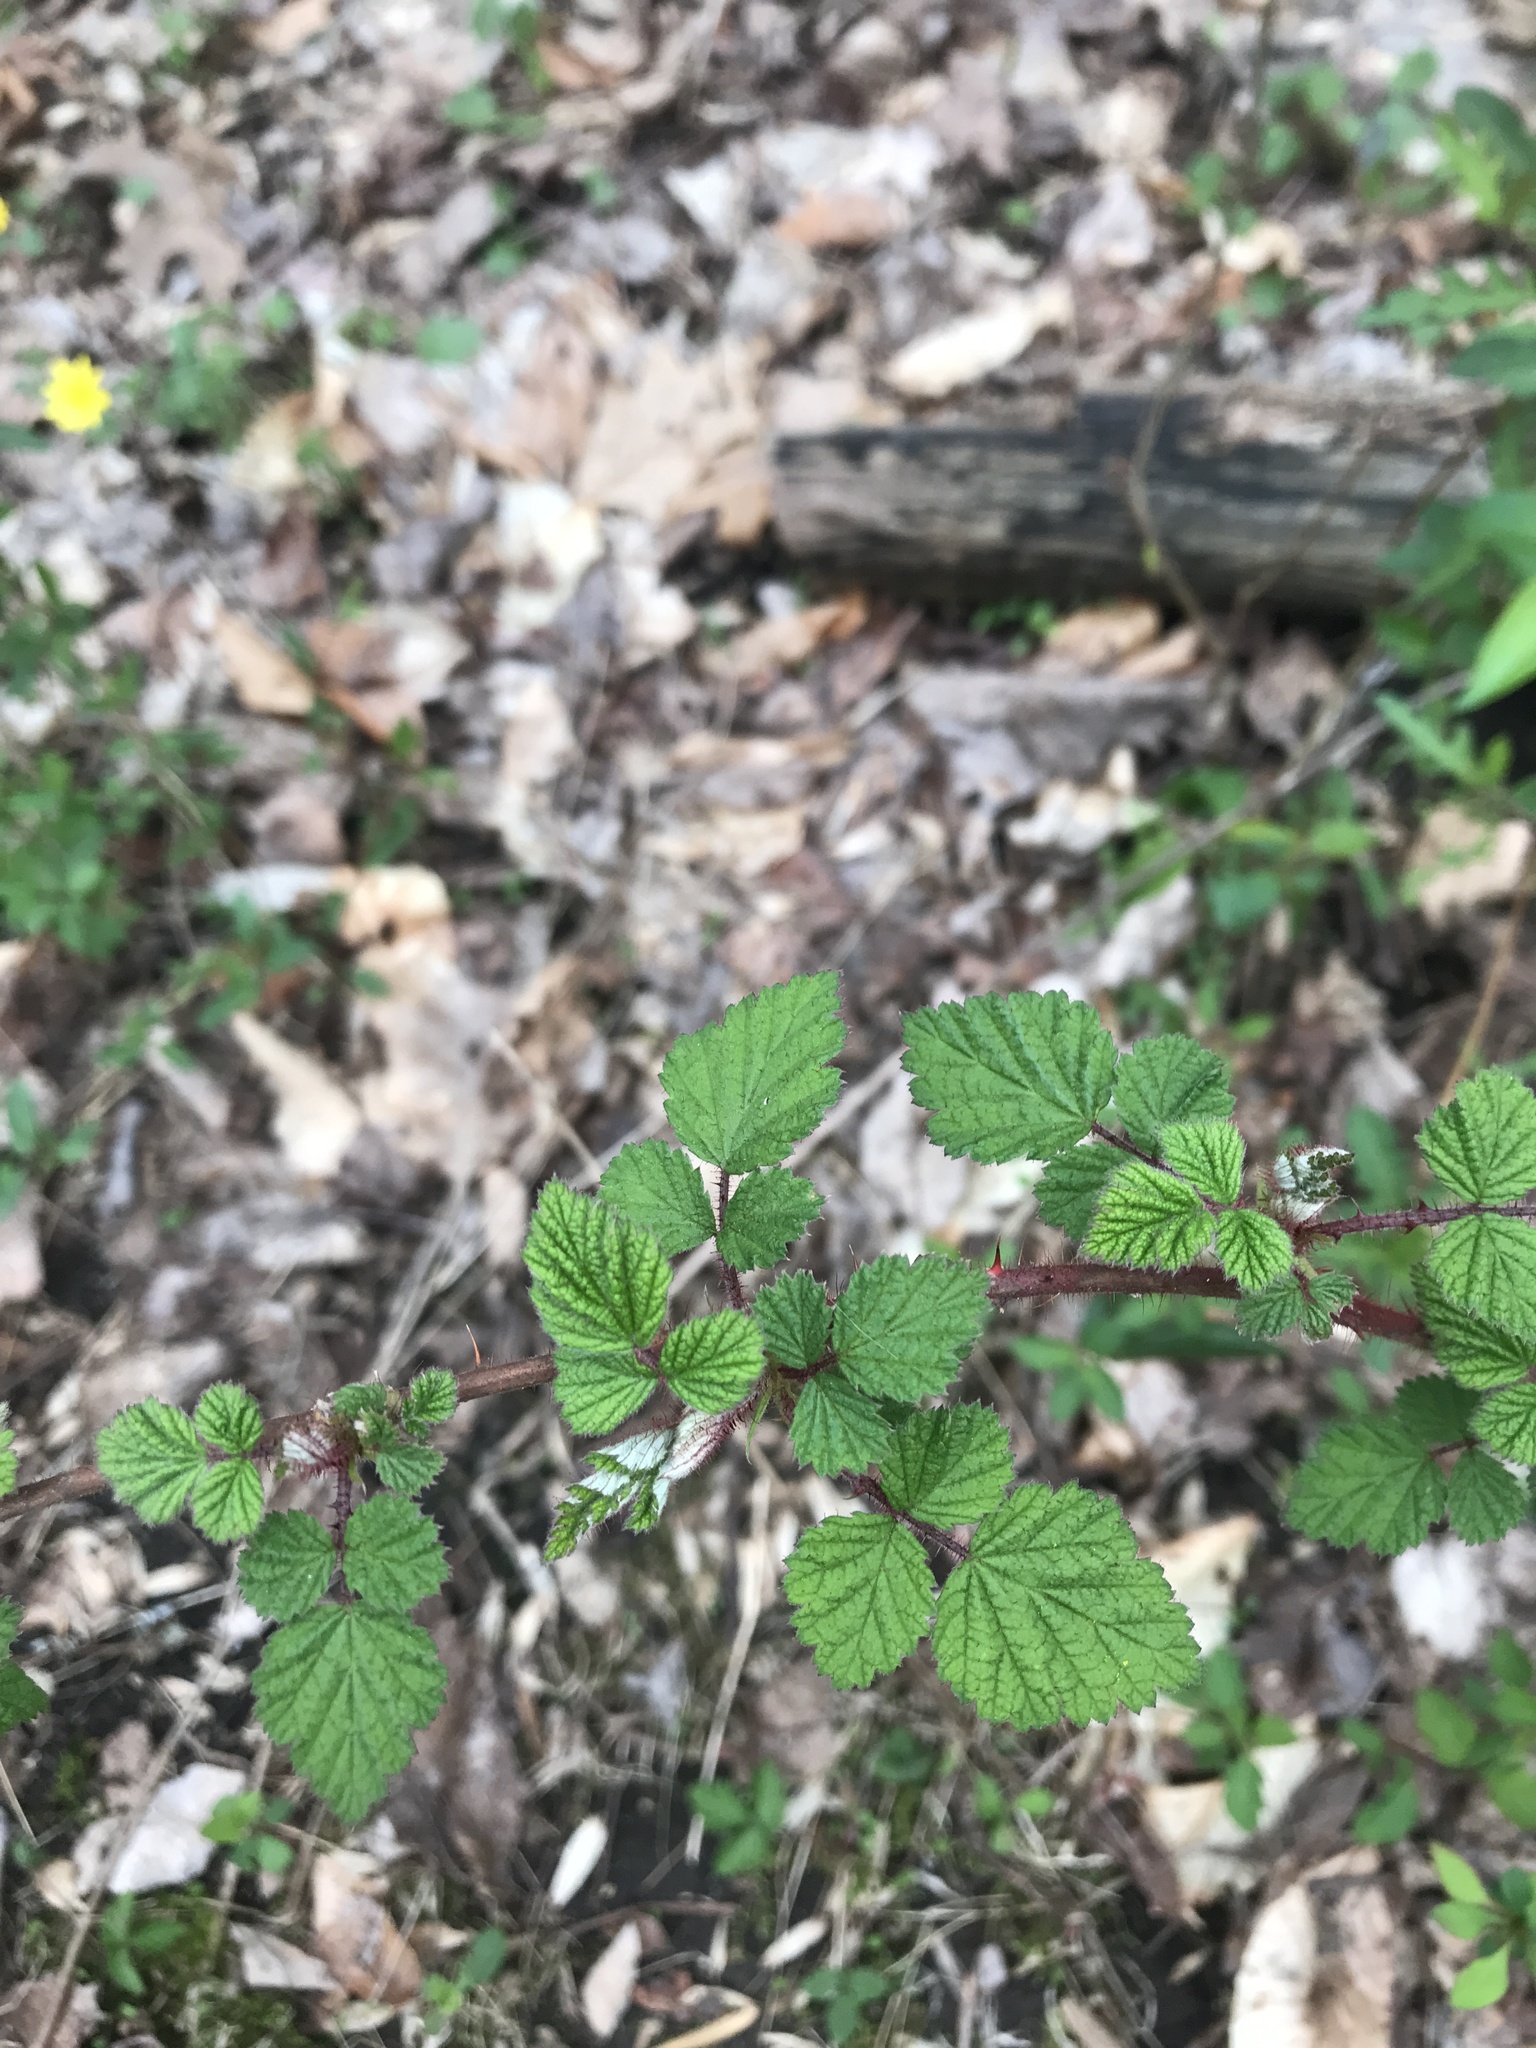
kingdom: Plantae
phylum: Tracheophyta
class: Magnoliopsida
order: Rosales
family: Rosaceae
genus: Rubus
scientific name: Rubus phoenicolasius
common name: Japanese wineberry
